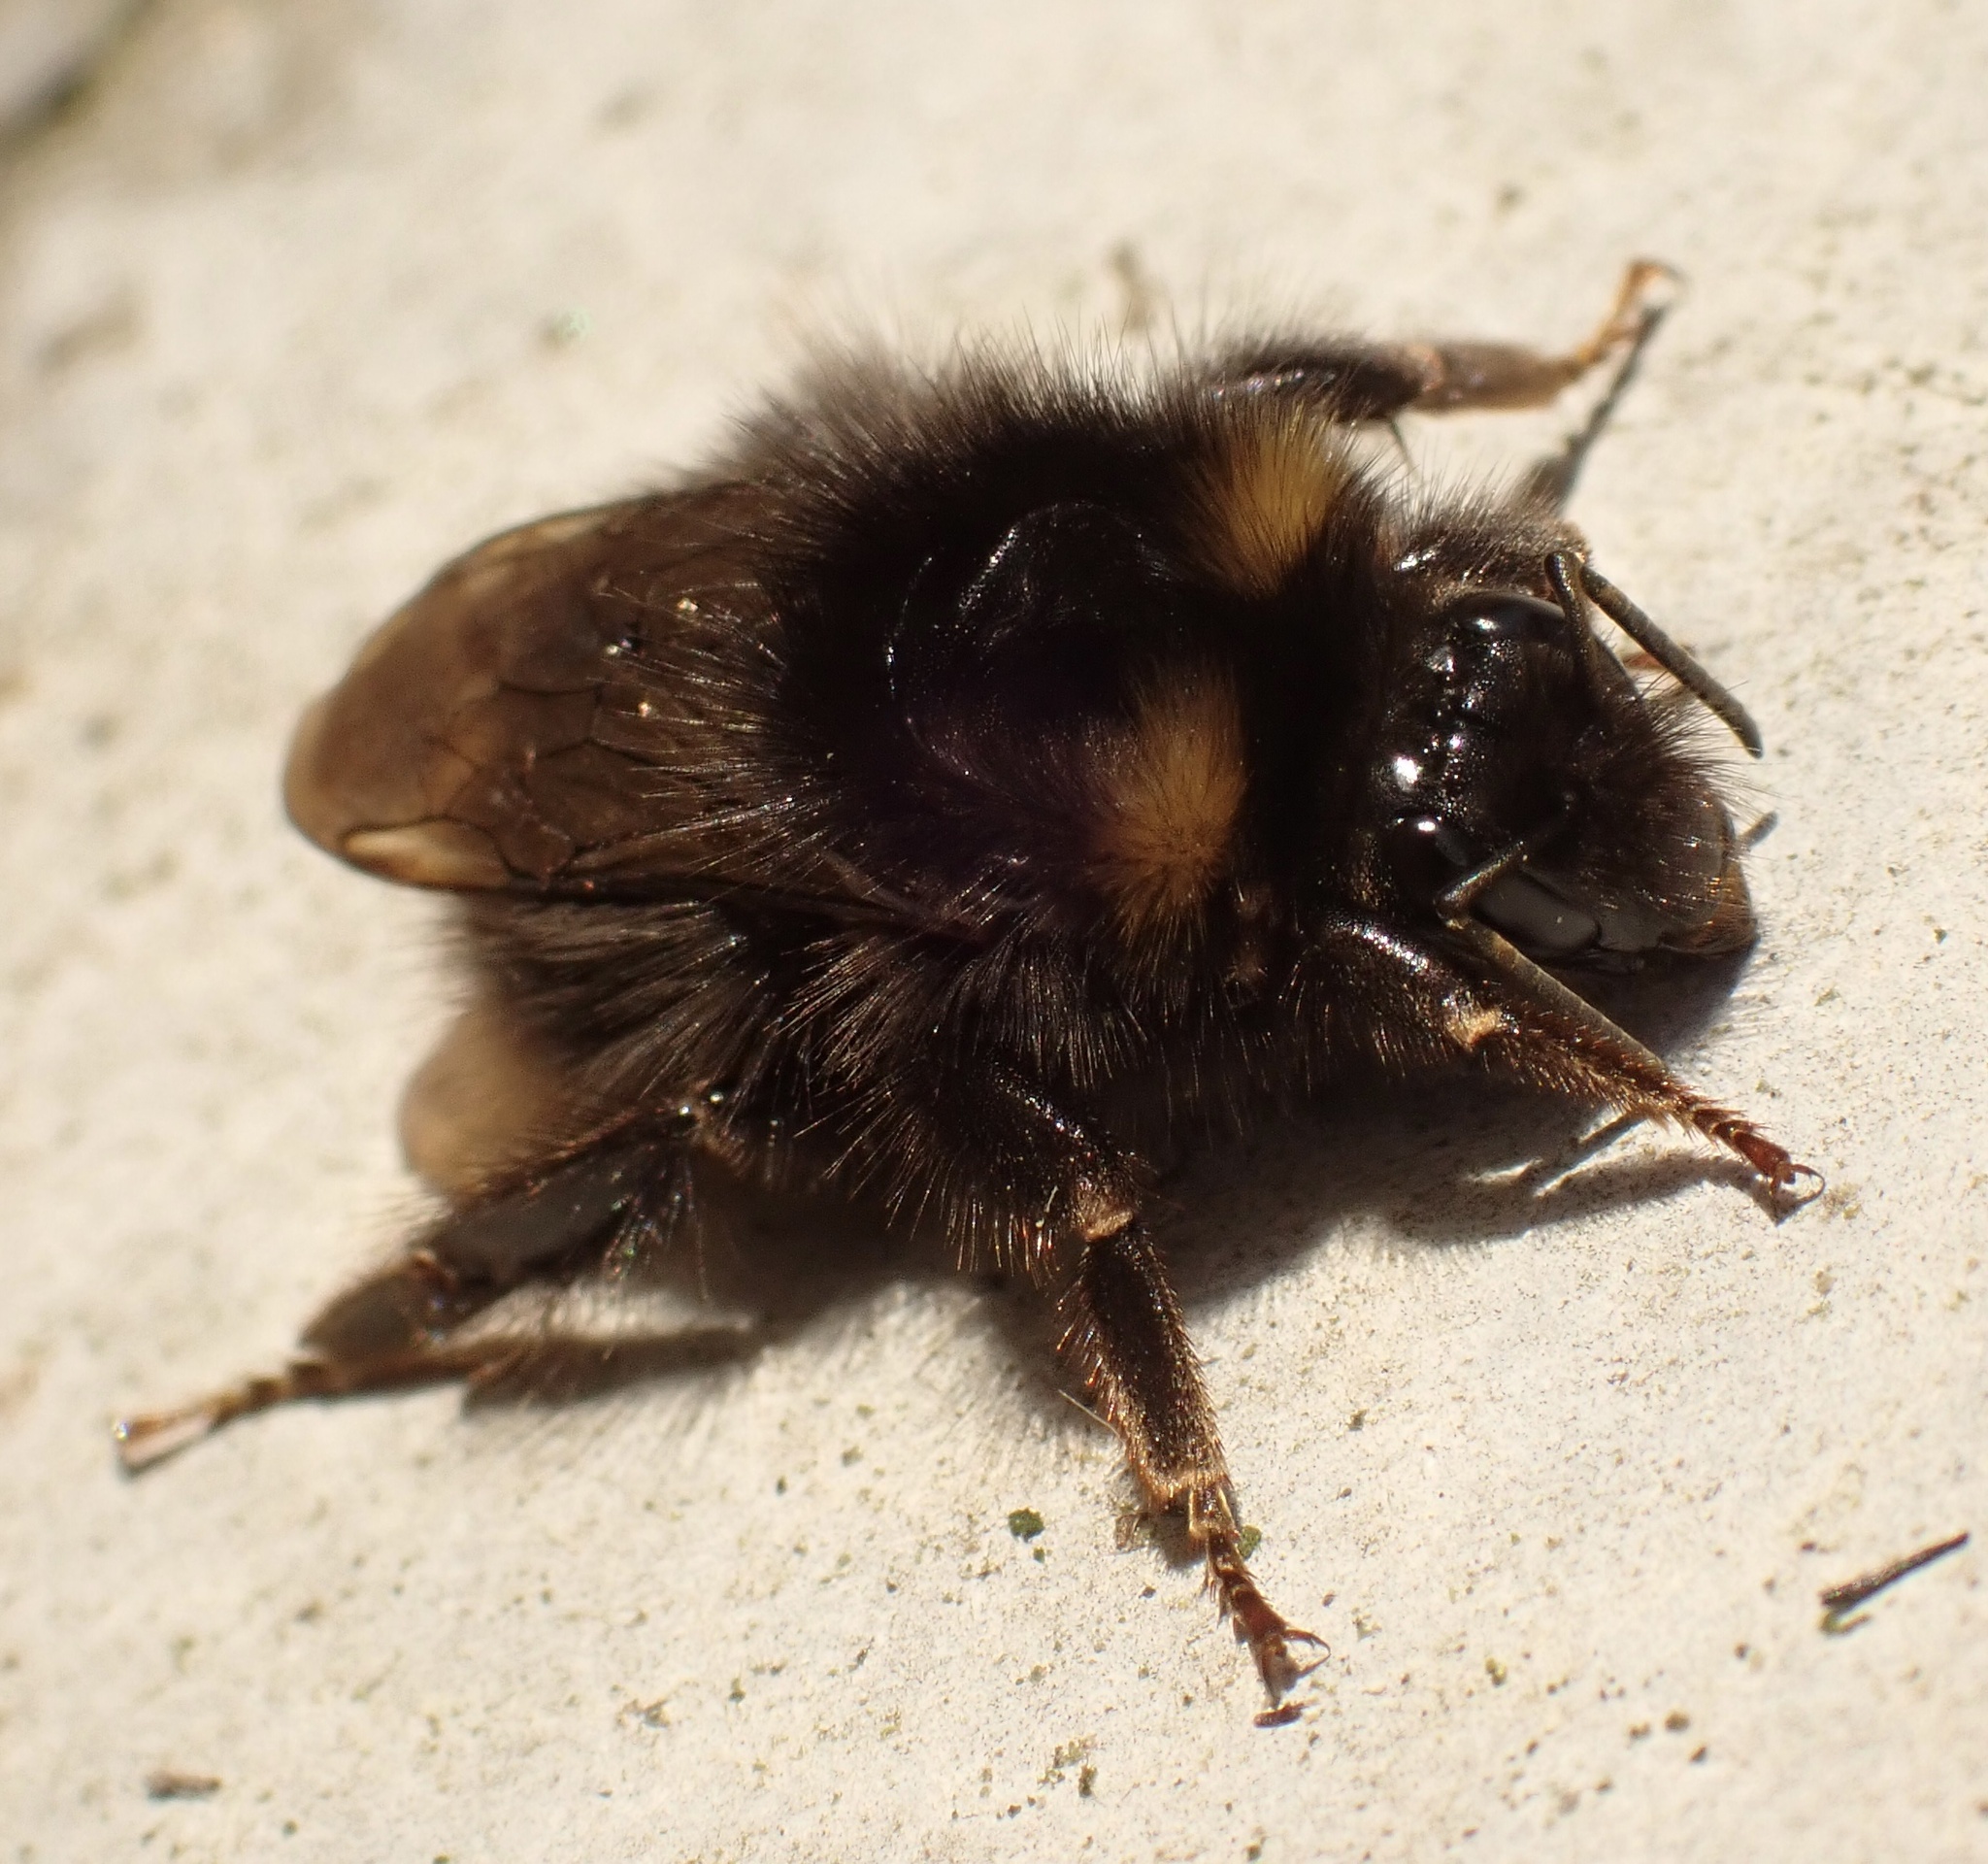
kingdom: Animalia
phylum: Arthropoda
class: Insecta
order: Hymenoptera
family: Apidae
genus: Bombus
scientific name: Bombus pratorum
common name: Early humble-bee
